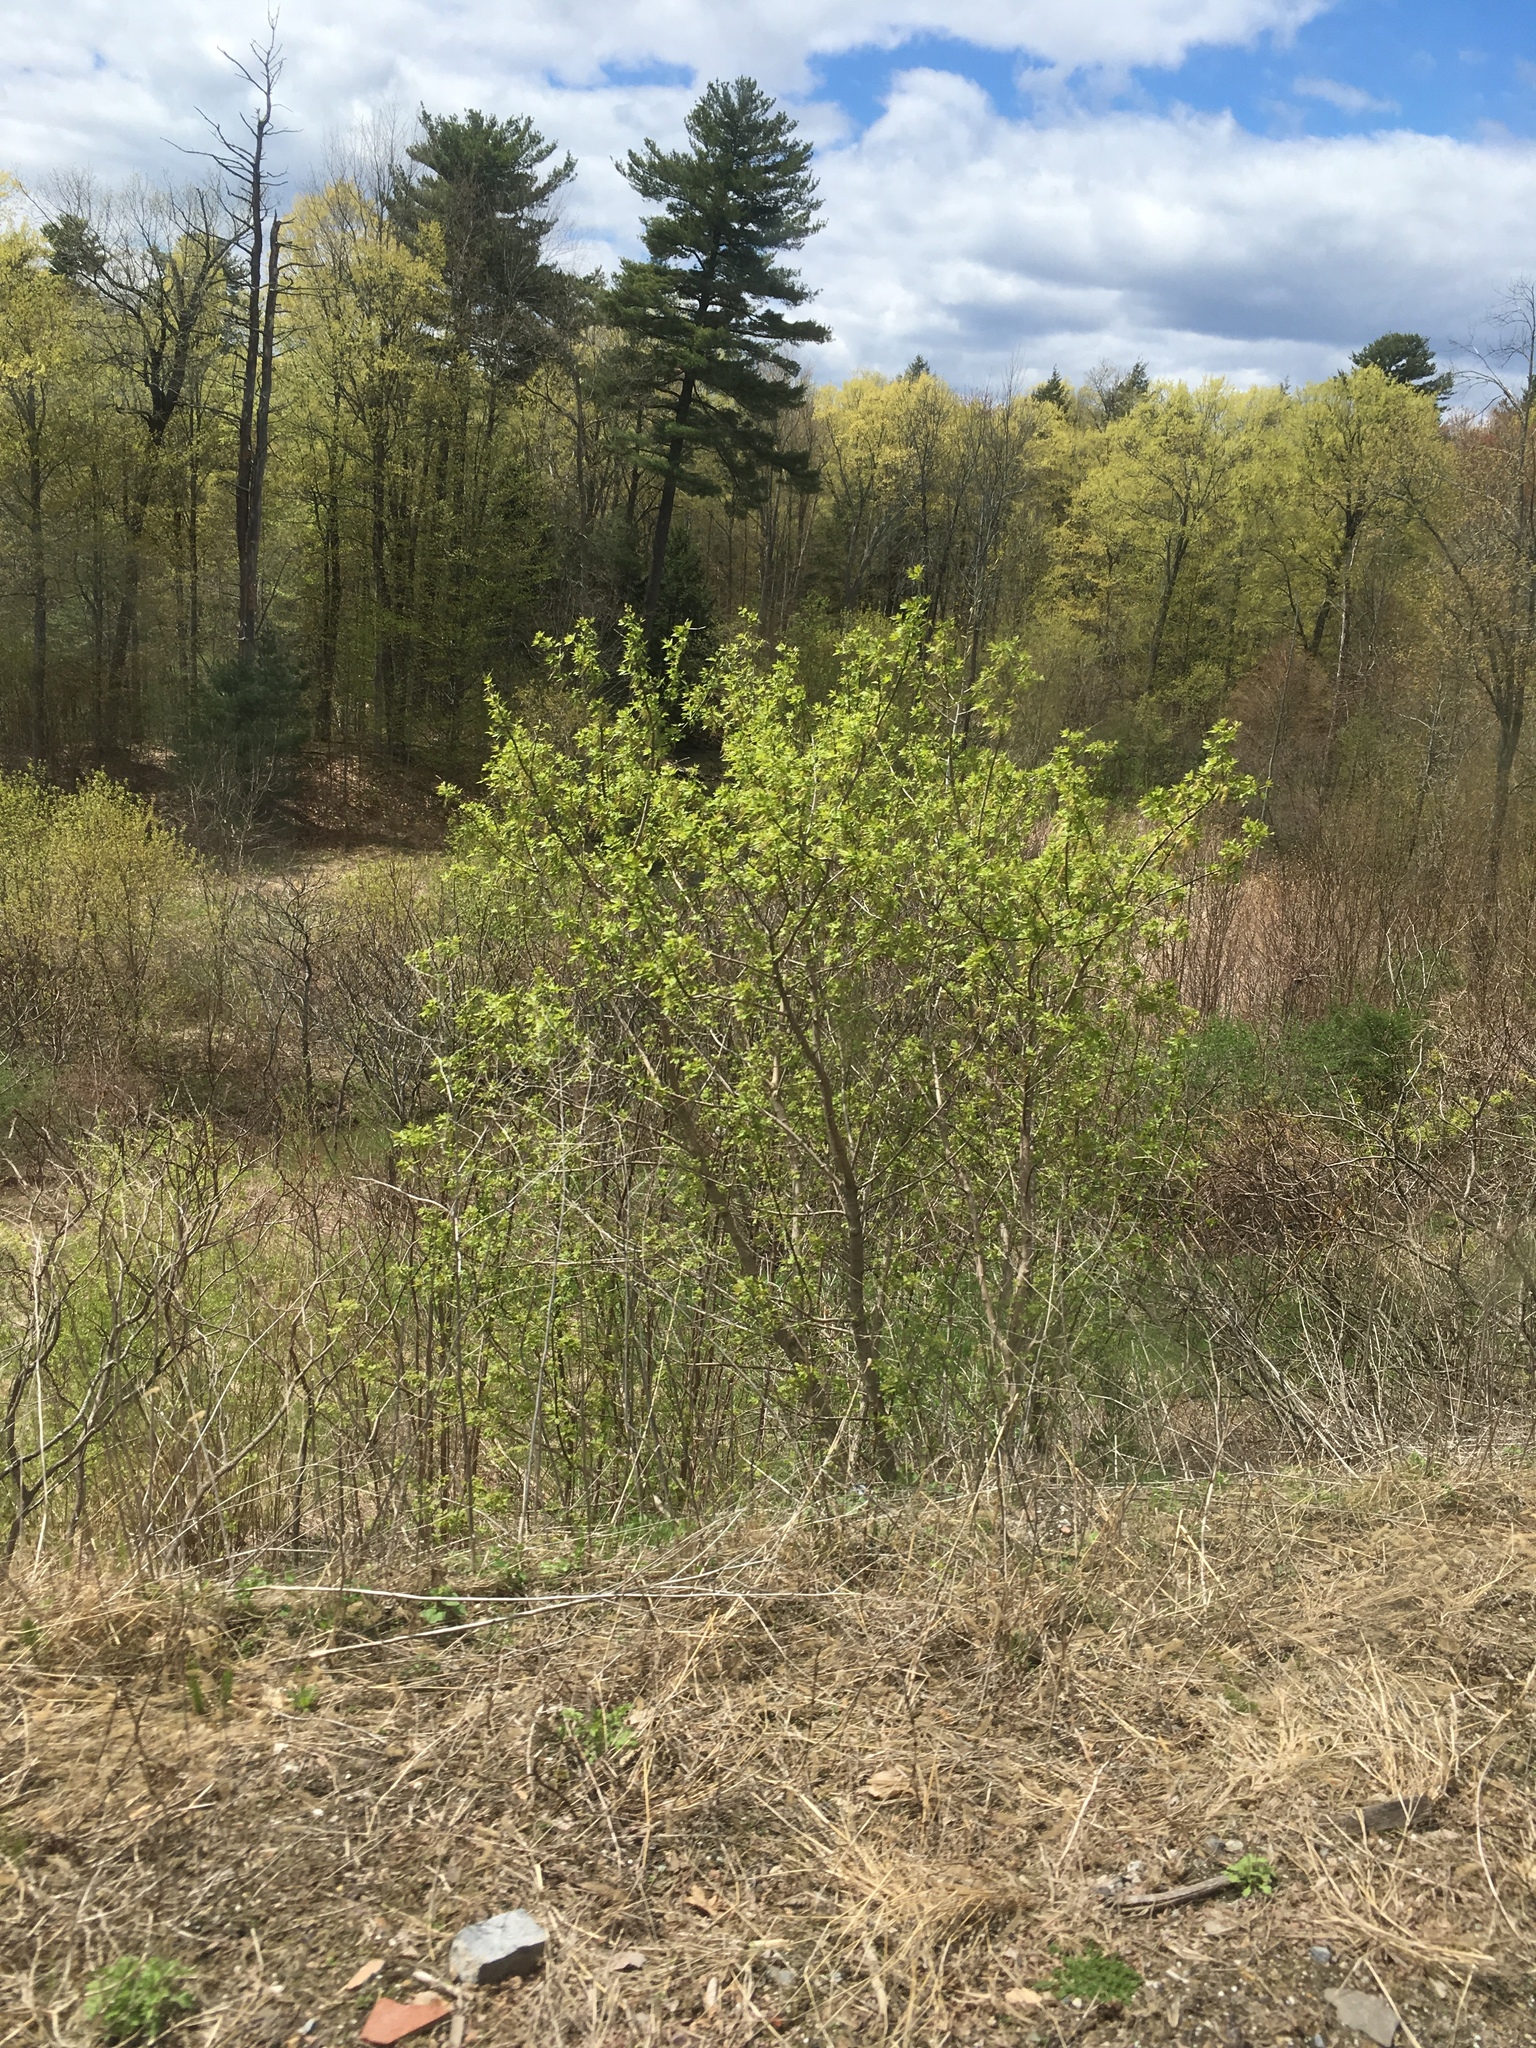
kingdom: Plantae
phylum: Tracheophyta
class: Pinopsida
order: Pinales
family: Pinaceae
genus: Pinus
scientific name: Pinus strobus
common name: Weymouth pine
